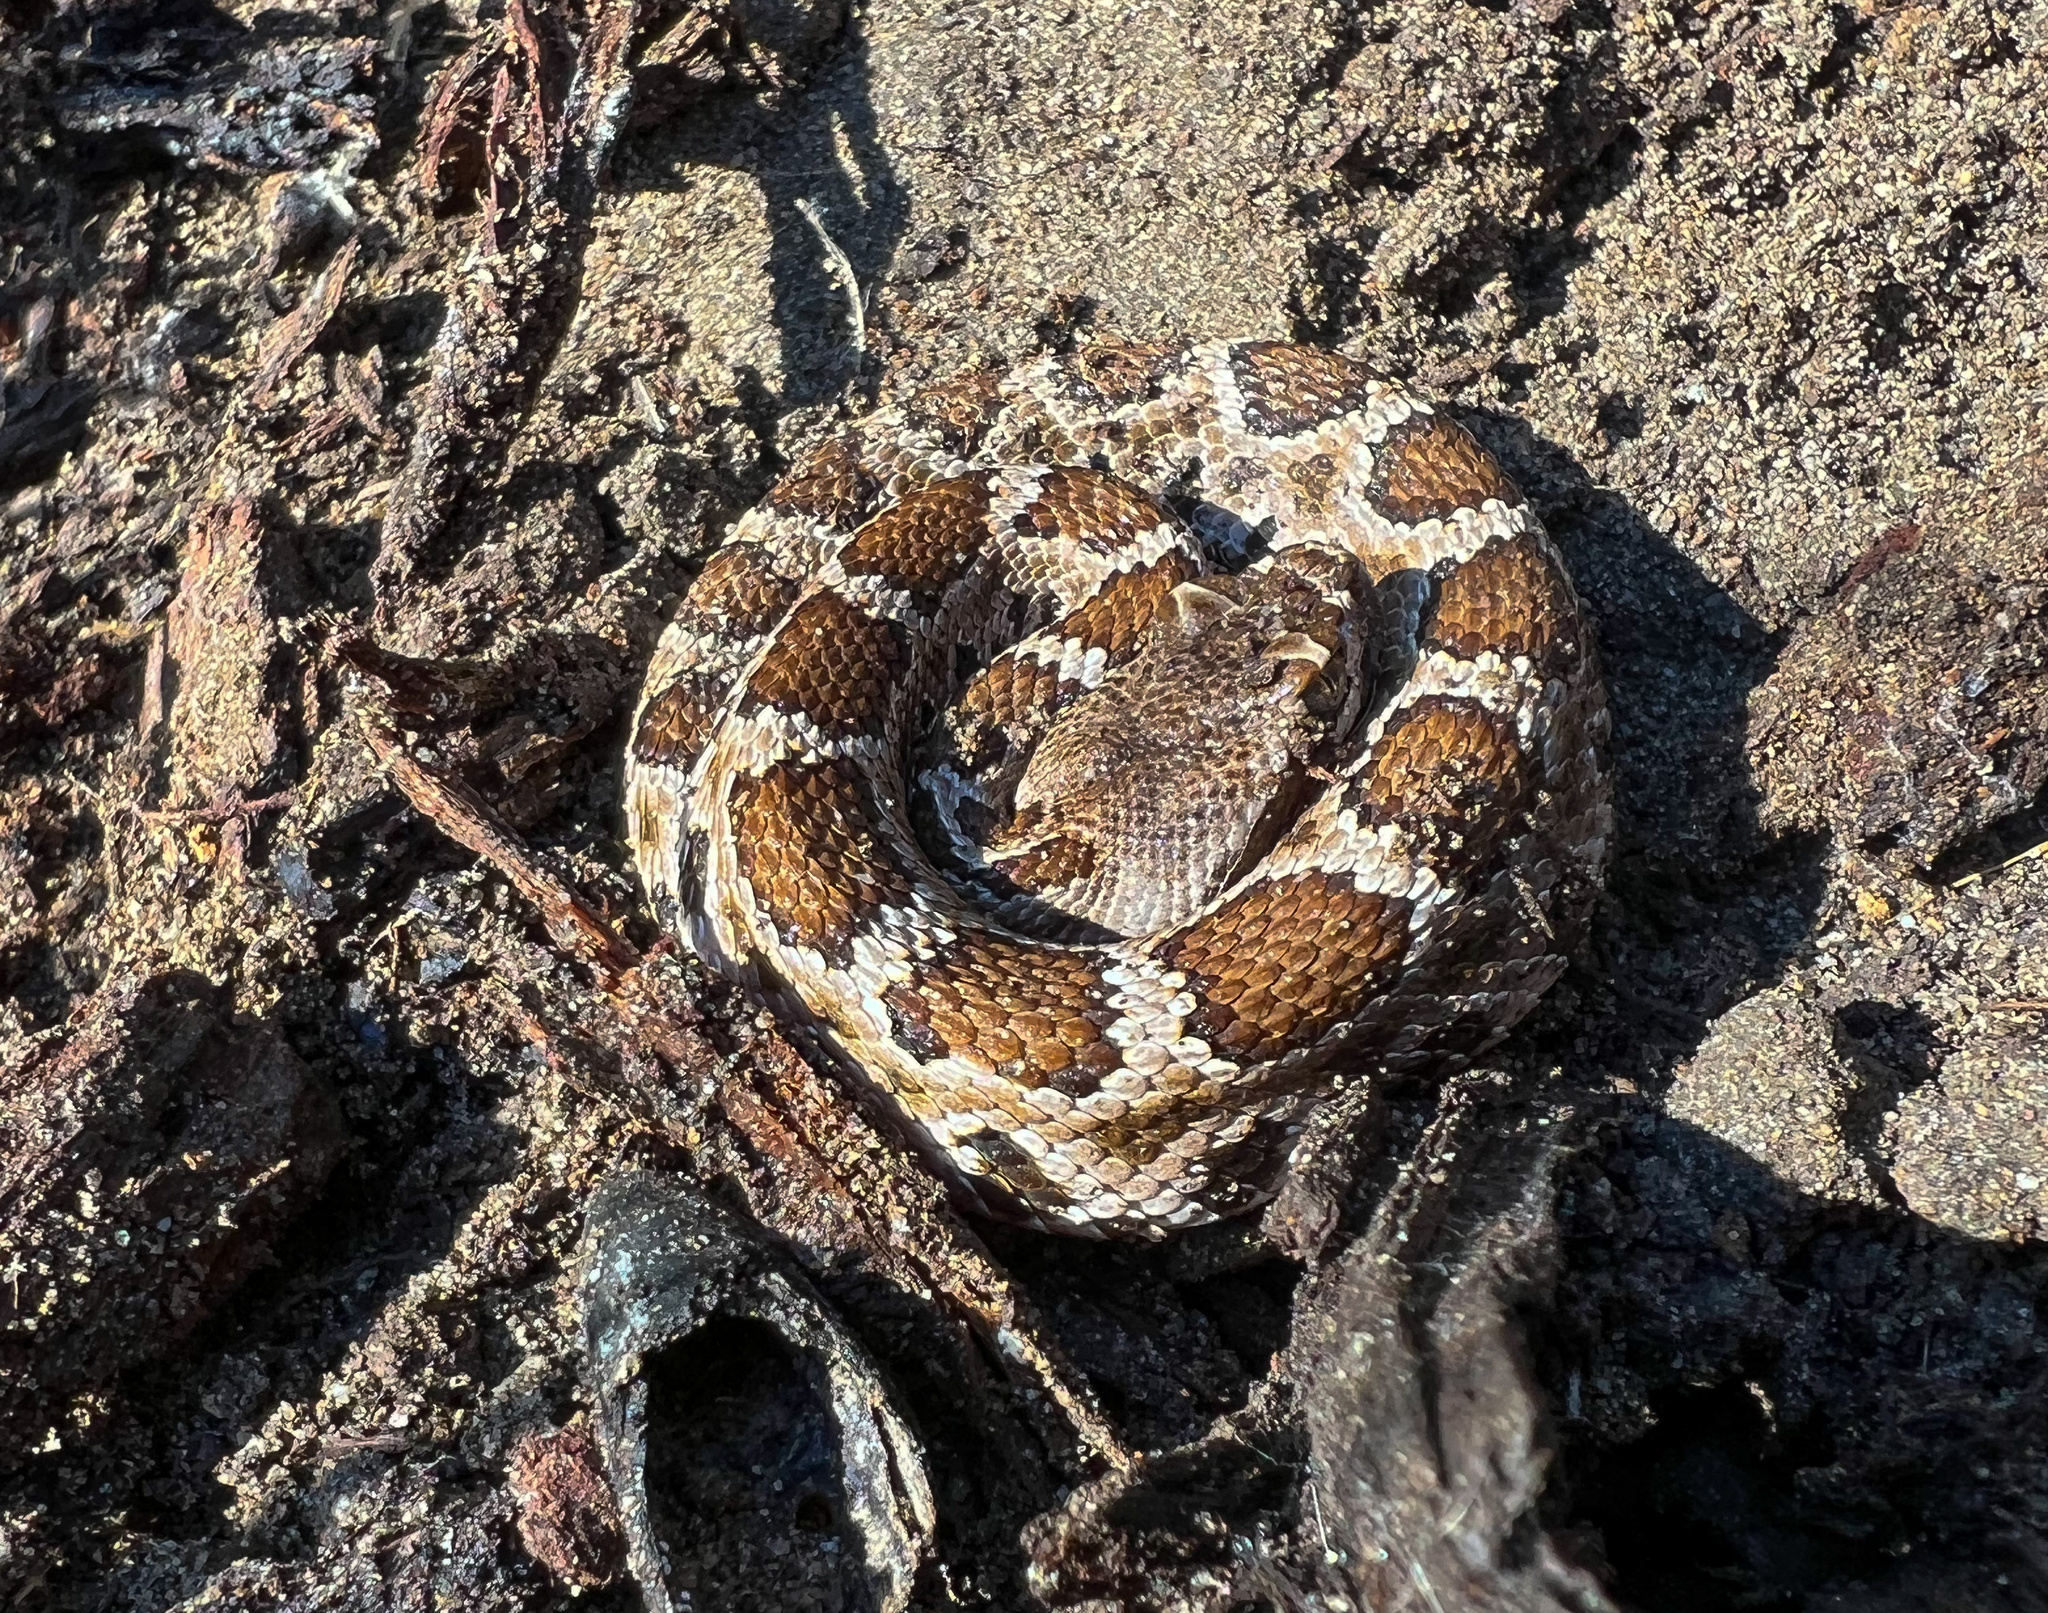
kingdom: Animalia
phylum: Chordata
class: Squamata
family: Viperidae
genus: Crotalus
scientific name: Crotalus oreganus
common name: Abyssus
